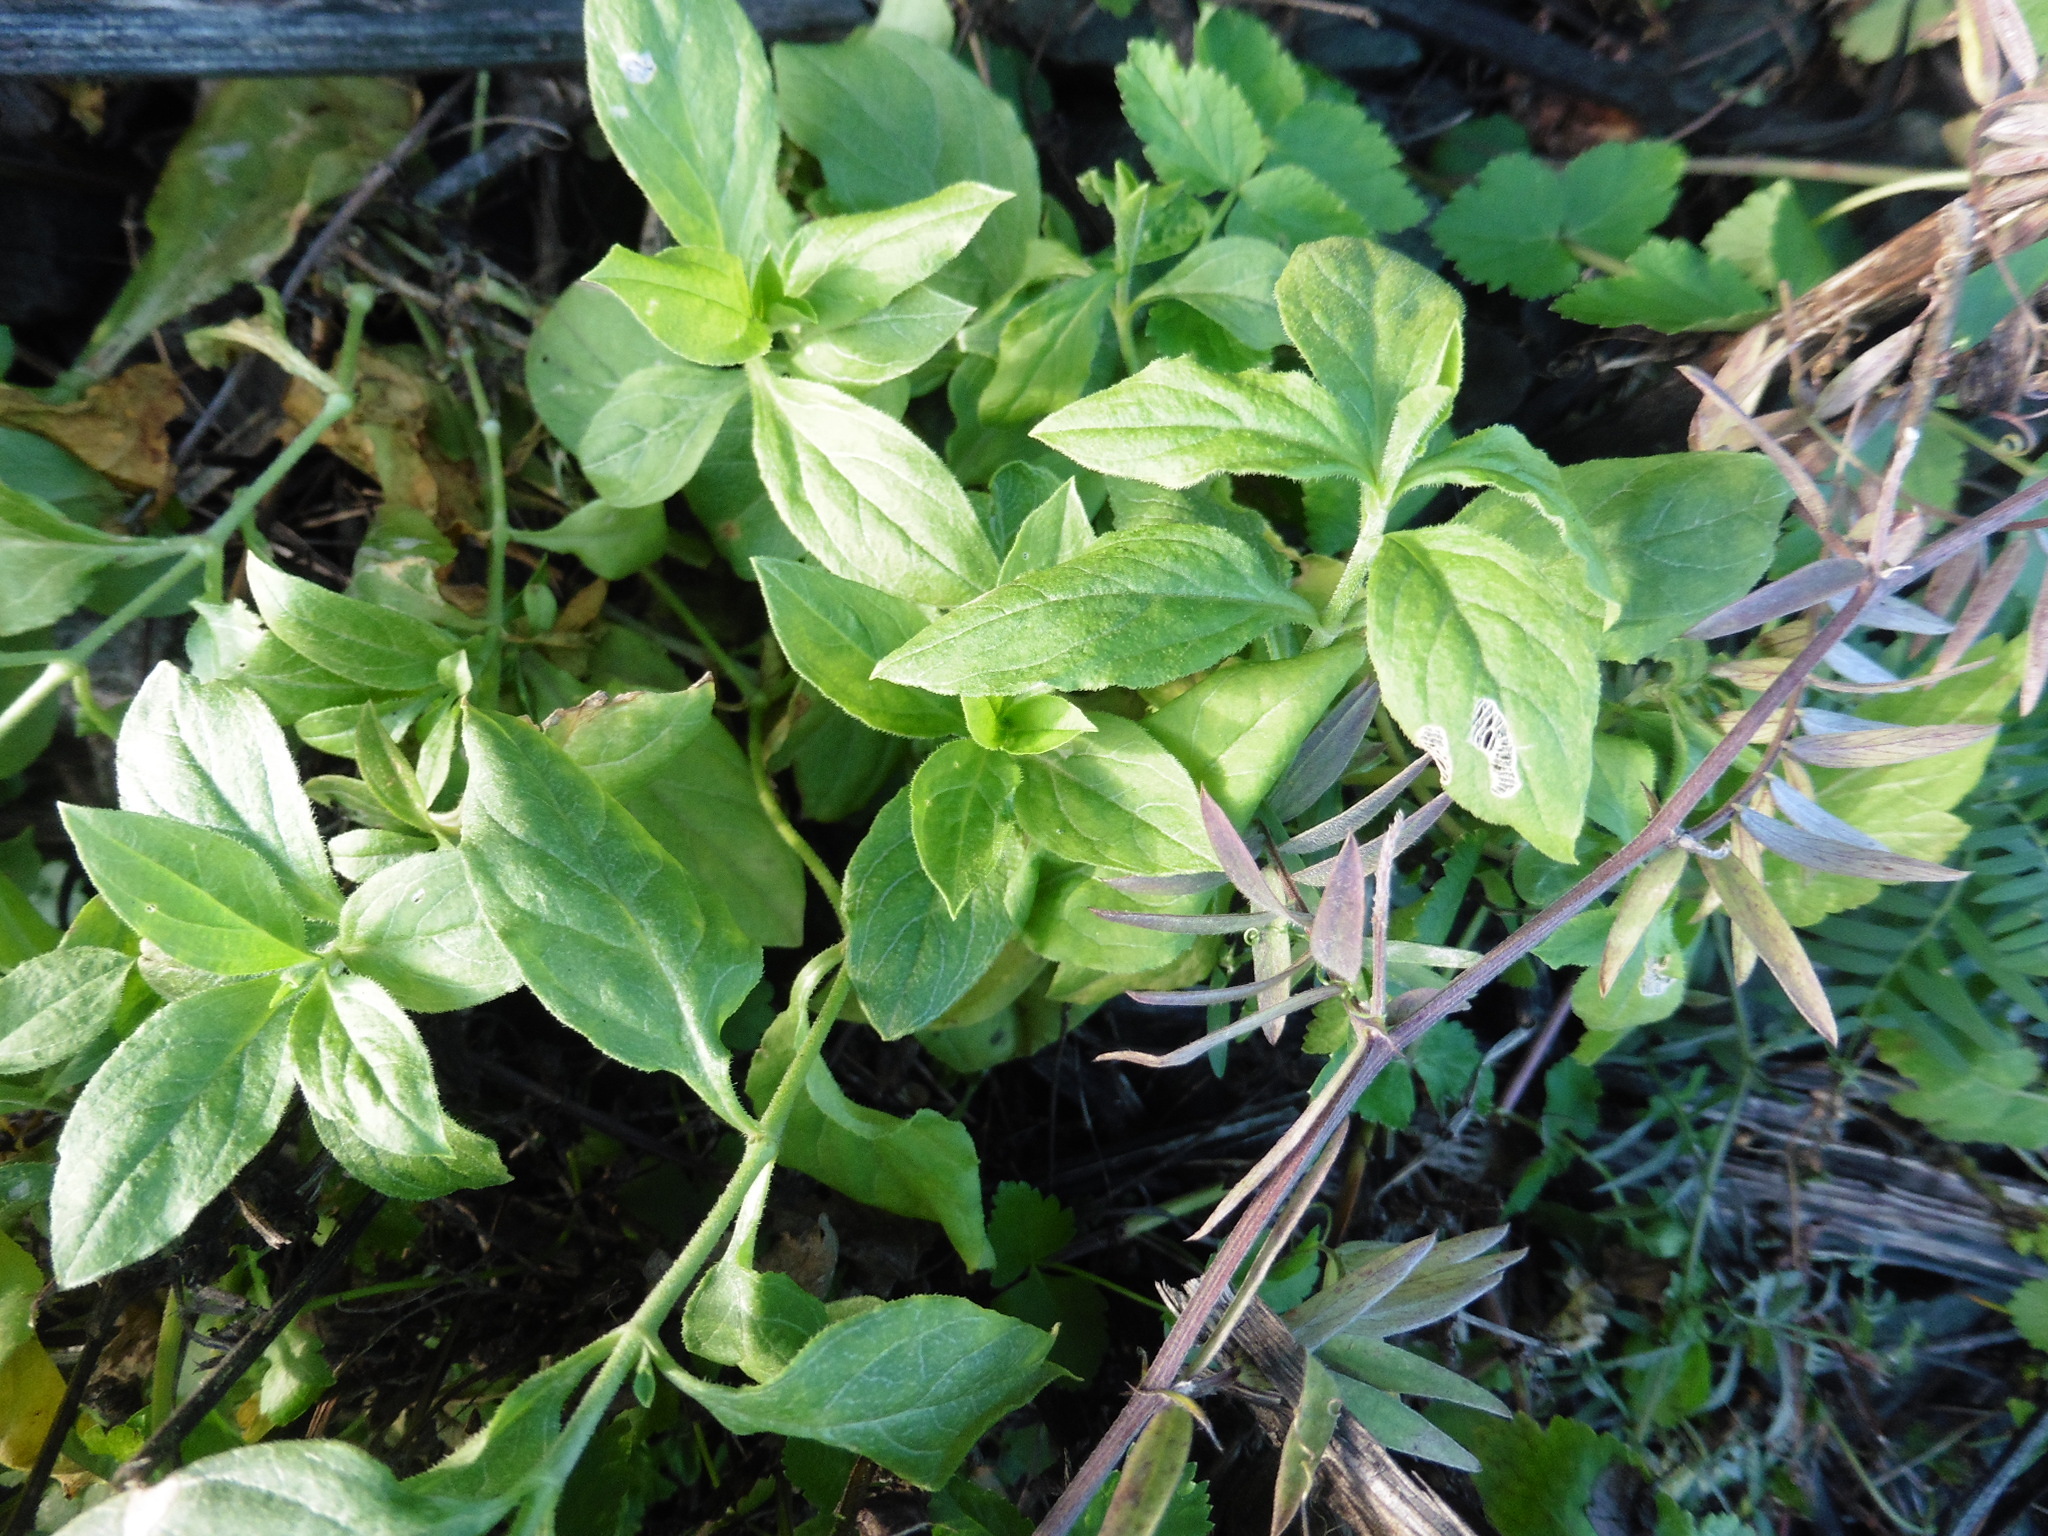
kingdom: Plantae
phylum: Tracheophyta
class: Magnoliopsida
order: Caryophyllales
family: Caryophyllaceae
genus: Silene
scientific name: Silene baccifera
